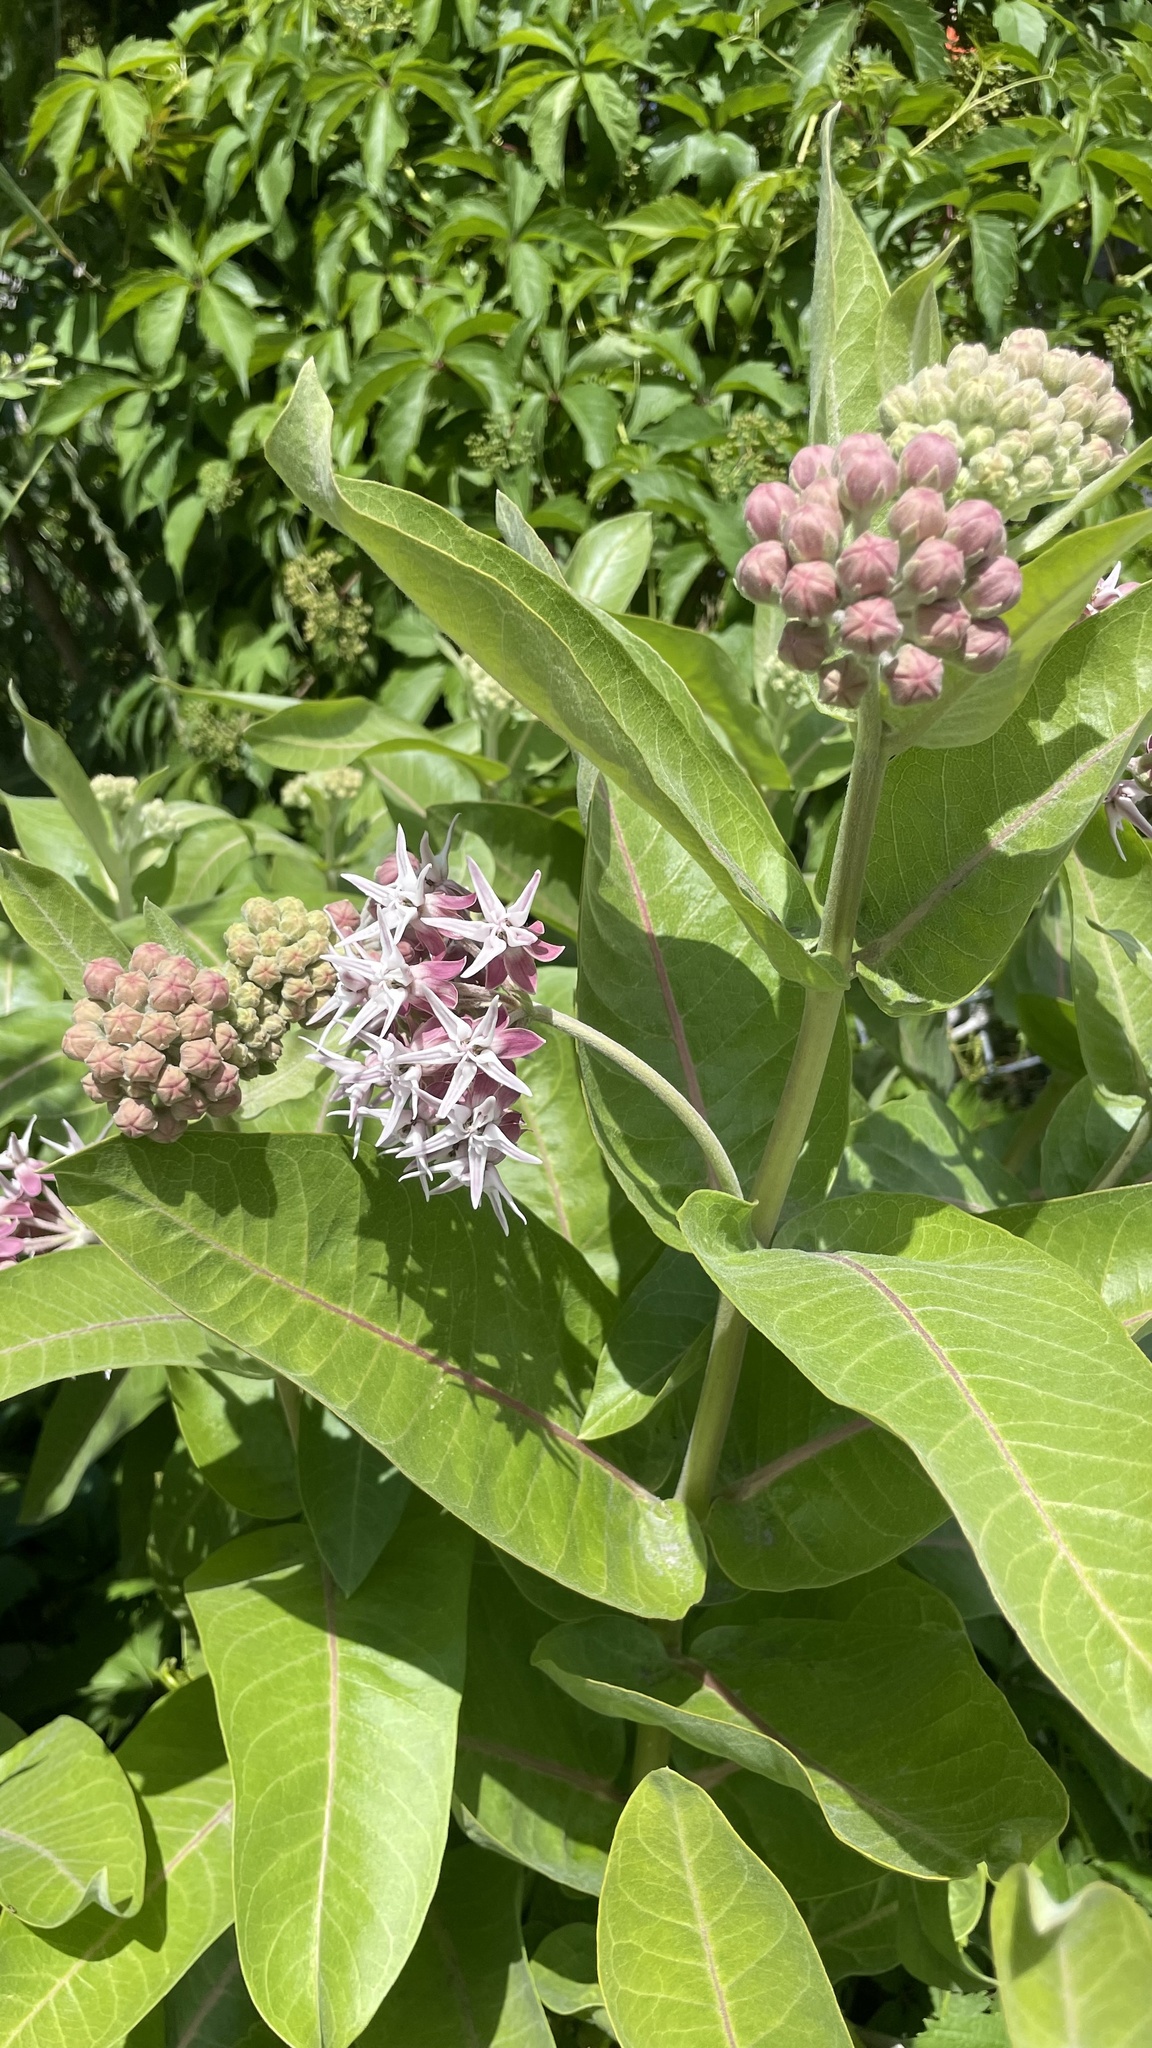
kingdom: Plantae
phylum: Tracheophyta
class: Magnoliopsida
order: Gentianales
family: Apocynaceae
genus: Asclepias
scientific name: Asclepias speciosa
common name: Showy milkweed
